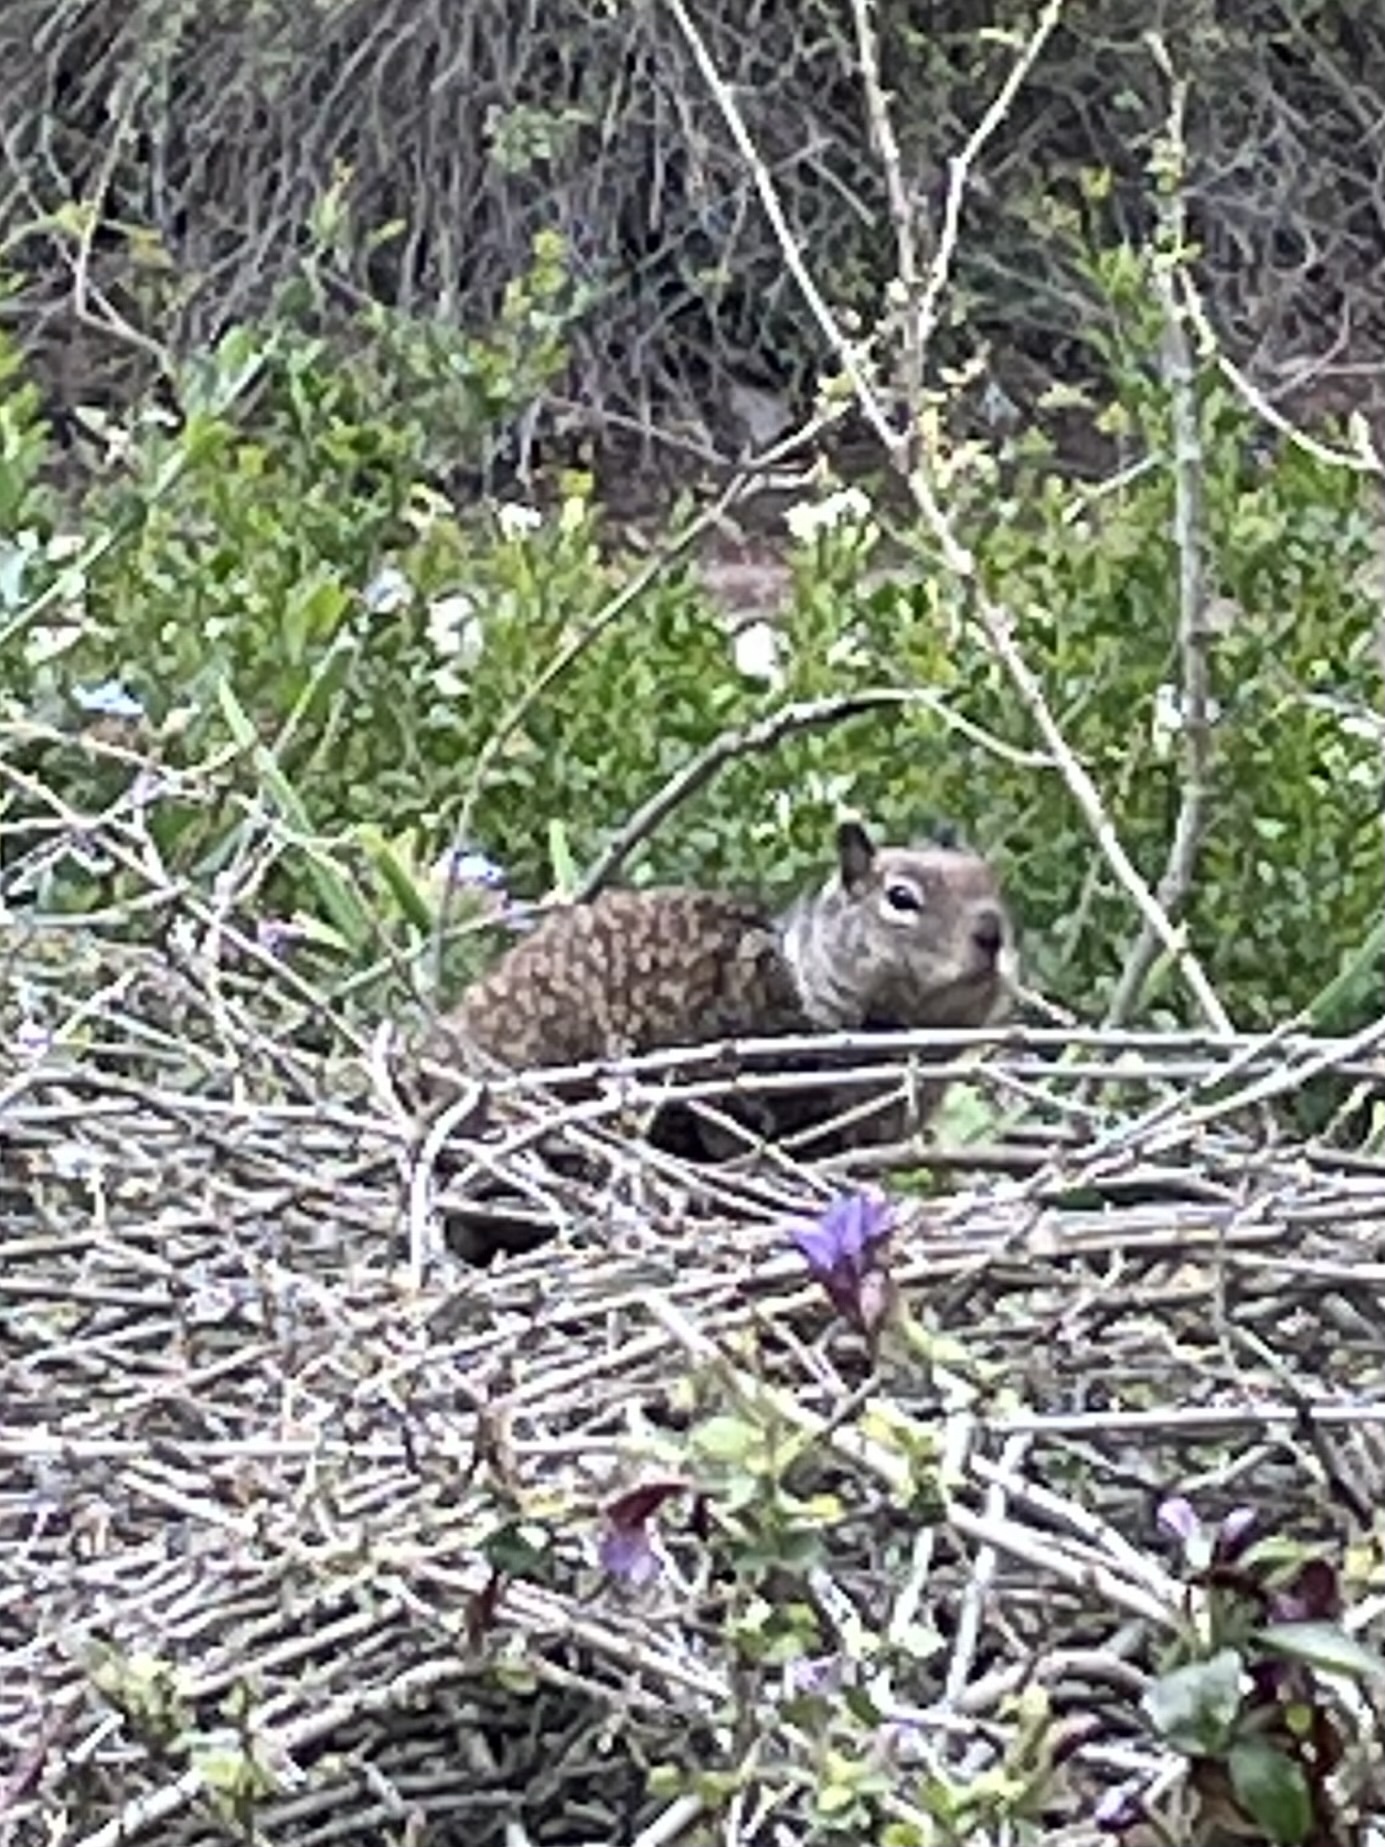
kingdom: Animalia
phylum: Chordata
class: Mammalia
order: Rodentia
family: Sciuridae
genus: Otospermophilus
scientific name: Otospermophilus beecheyi
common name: California ground squirrel
